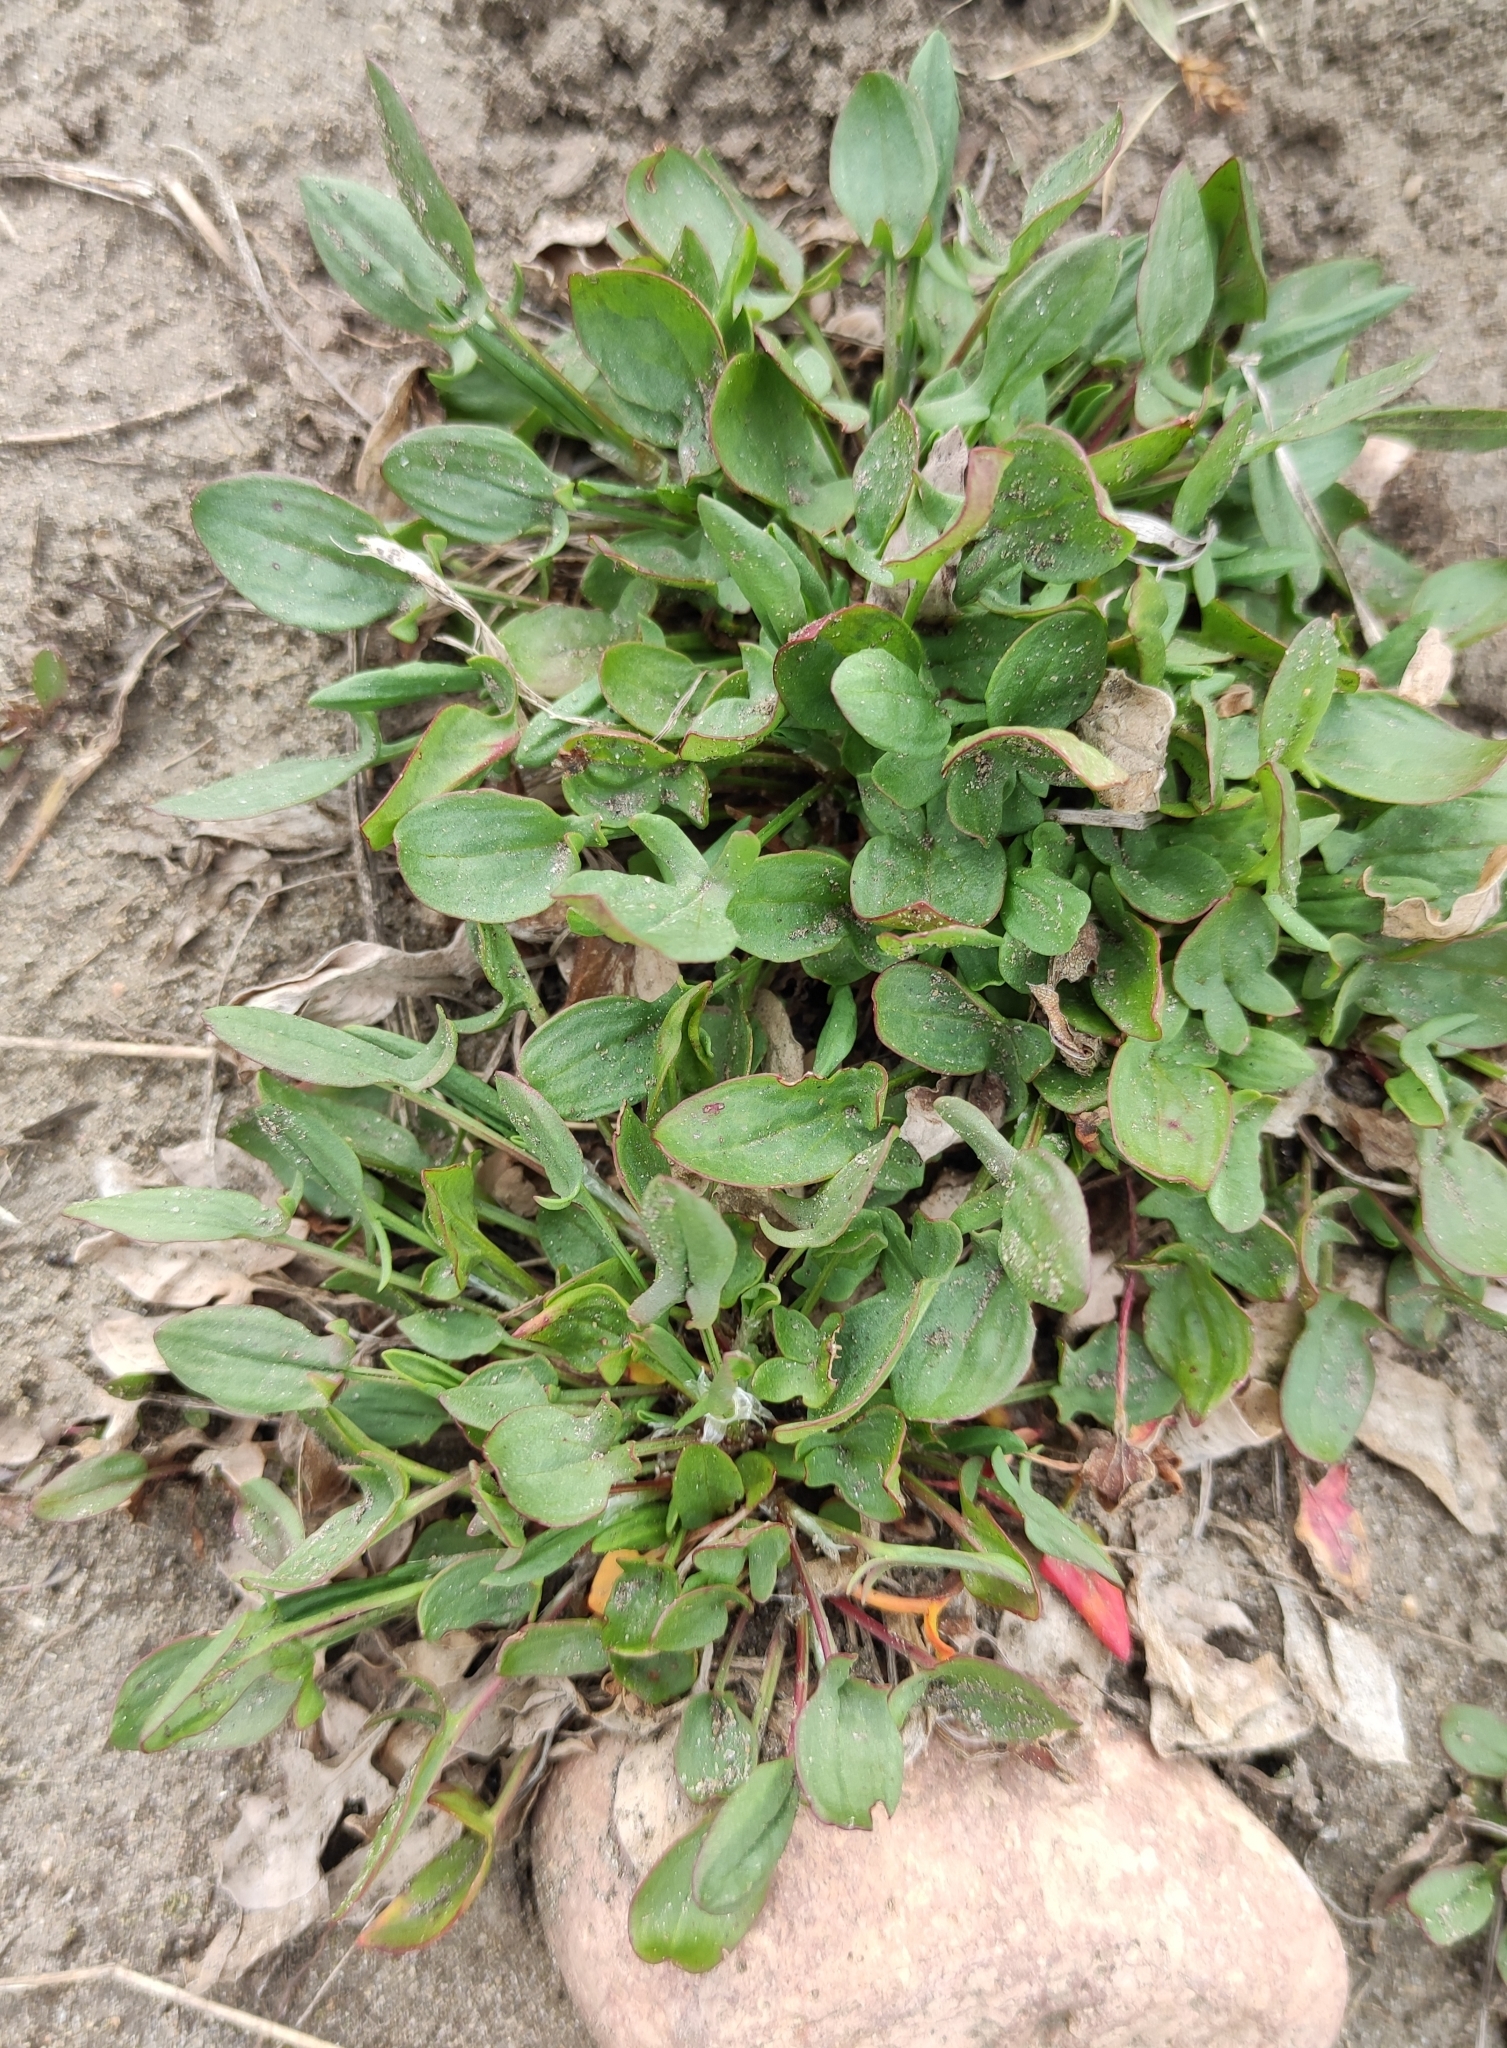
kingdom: Plantae
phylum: Tracheophyta
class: Magnoliopsida
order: Caryophyllales
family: Polygonaceae
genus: Rumex
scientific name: Rumex acetosella
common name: Common sheep sorrel
